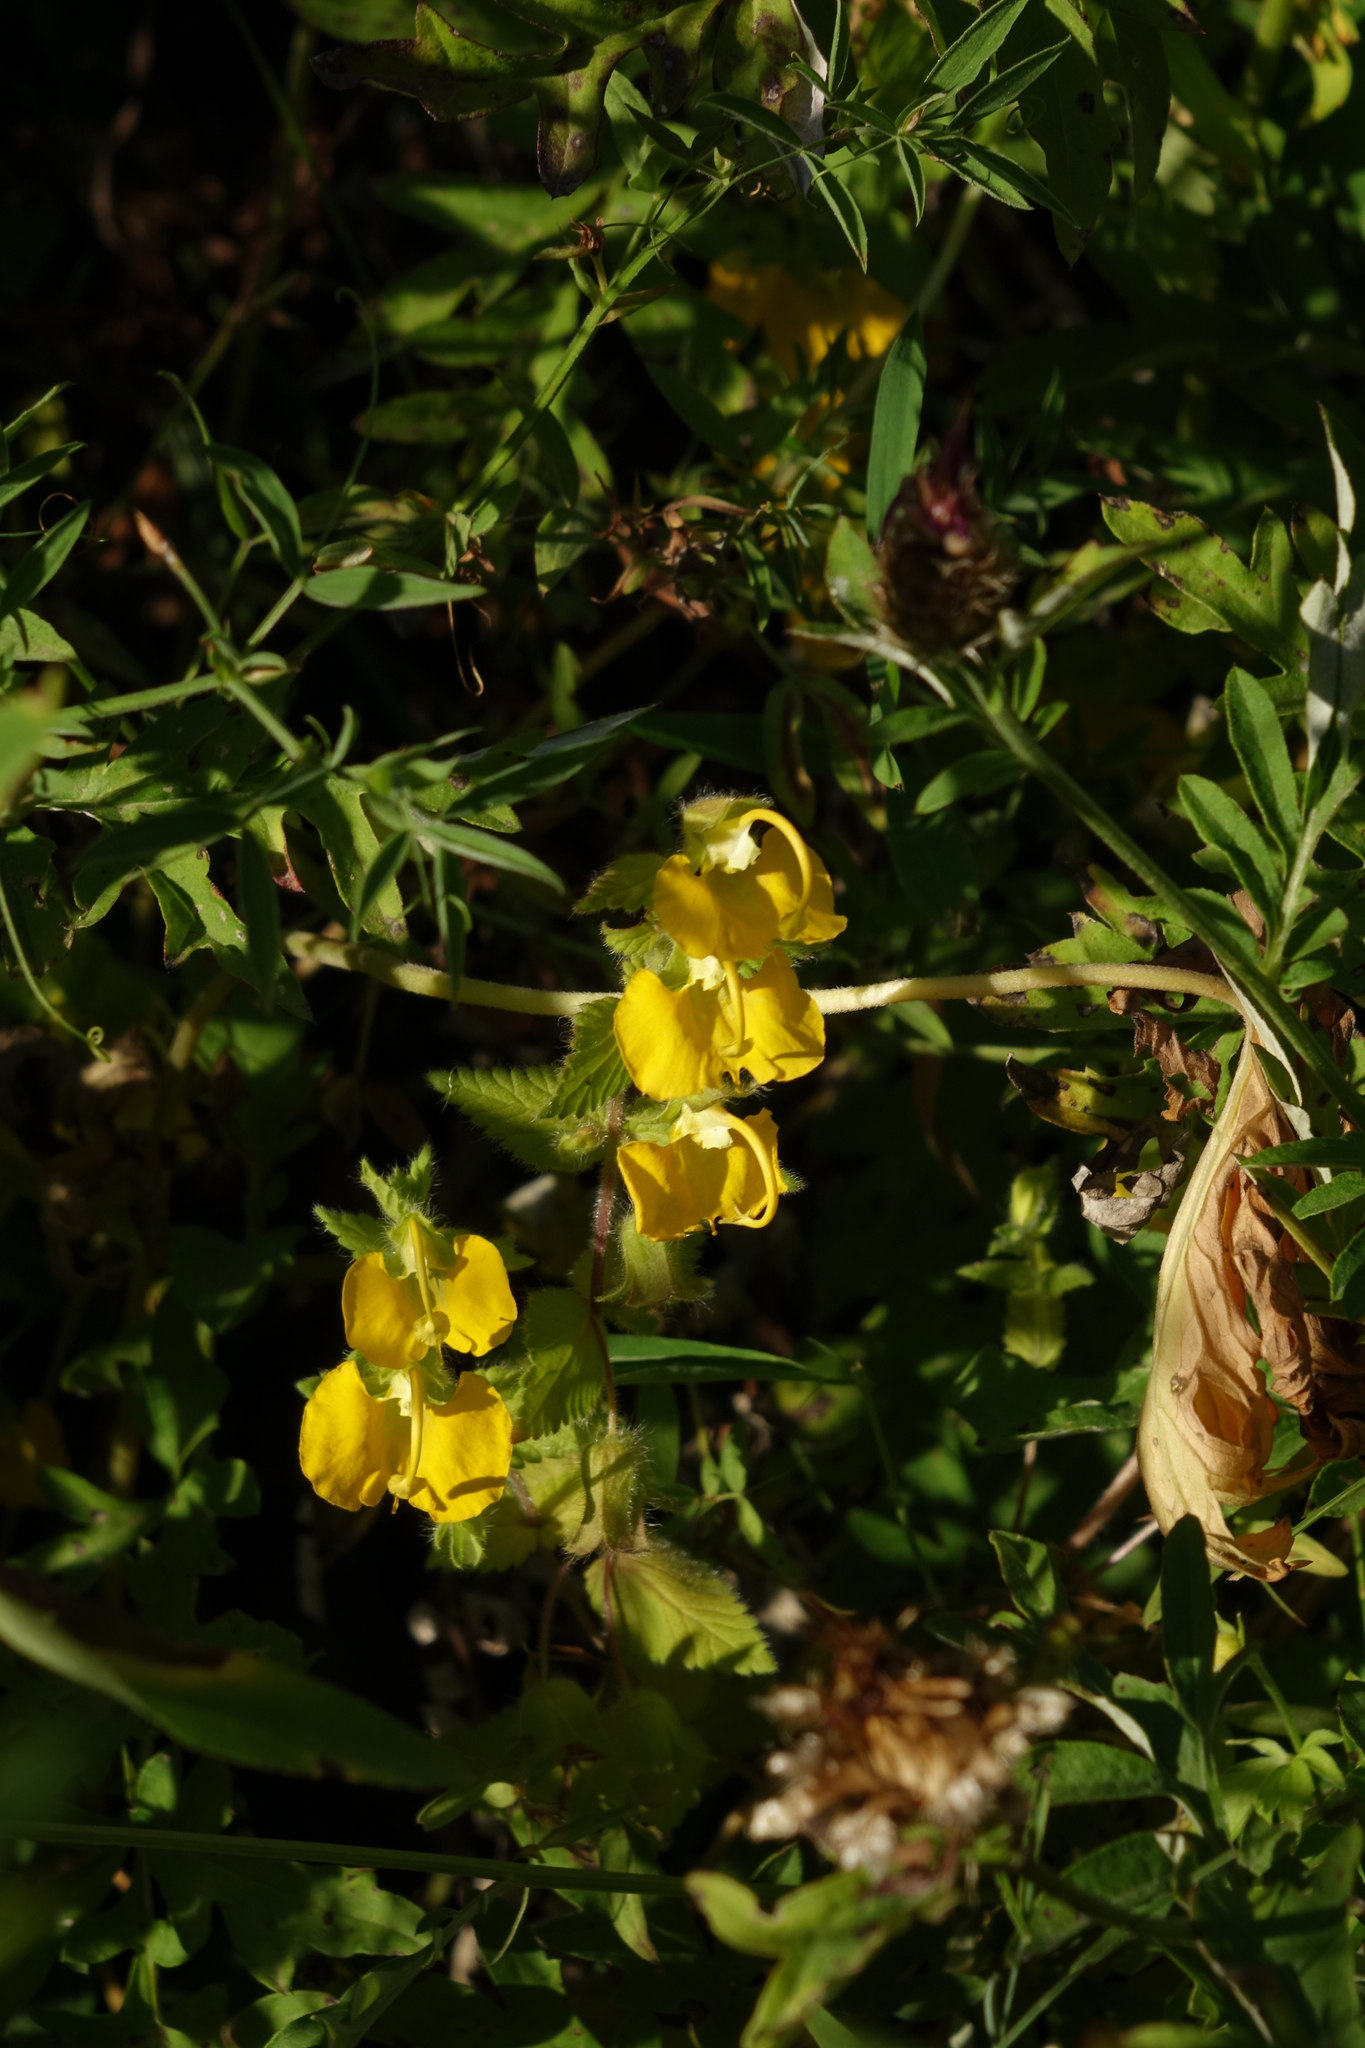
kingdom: Plantae
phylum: Tracheophyta
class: Magnoliopsida
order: Lamiales
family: Orobanchaceae
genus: Rhynchocorys
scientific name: Rhynchocorys orientalis
